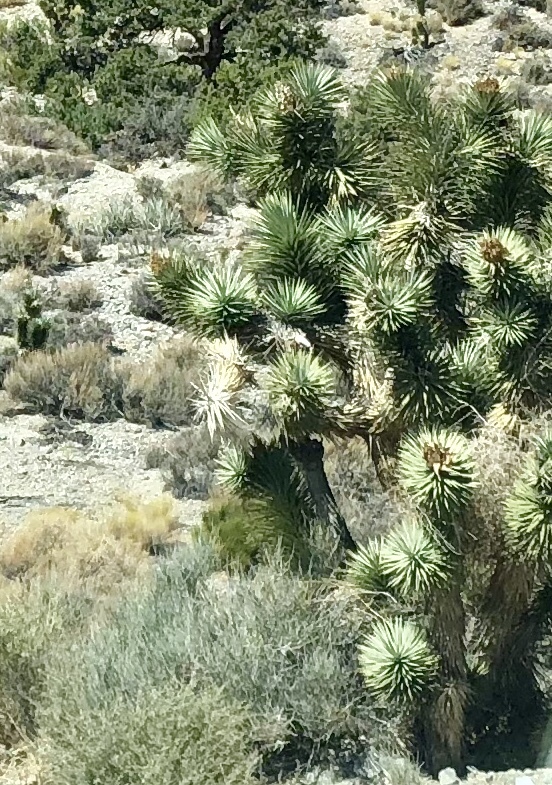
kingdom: Plantae
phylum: Tracheophyta
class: Liliopsida
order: Asparagales
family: Asparagaceae
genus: Yucca
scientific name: Yucca brevifolia
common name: Joshua tree
